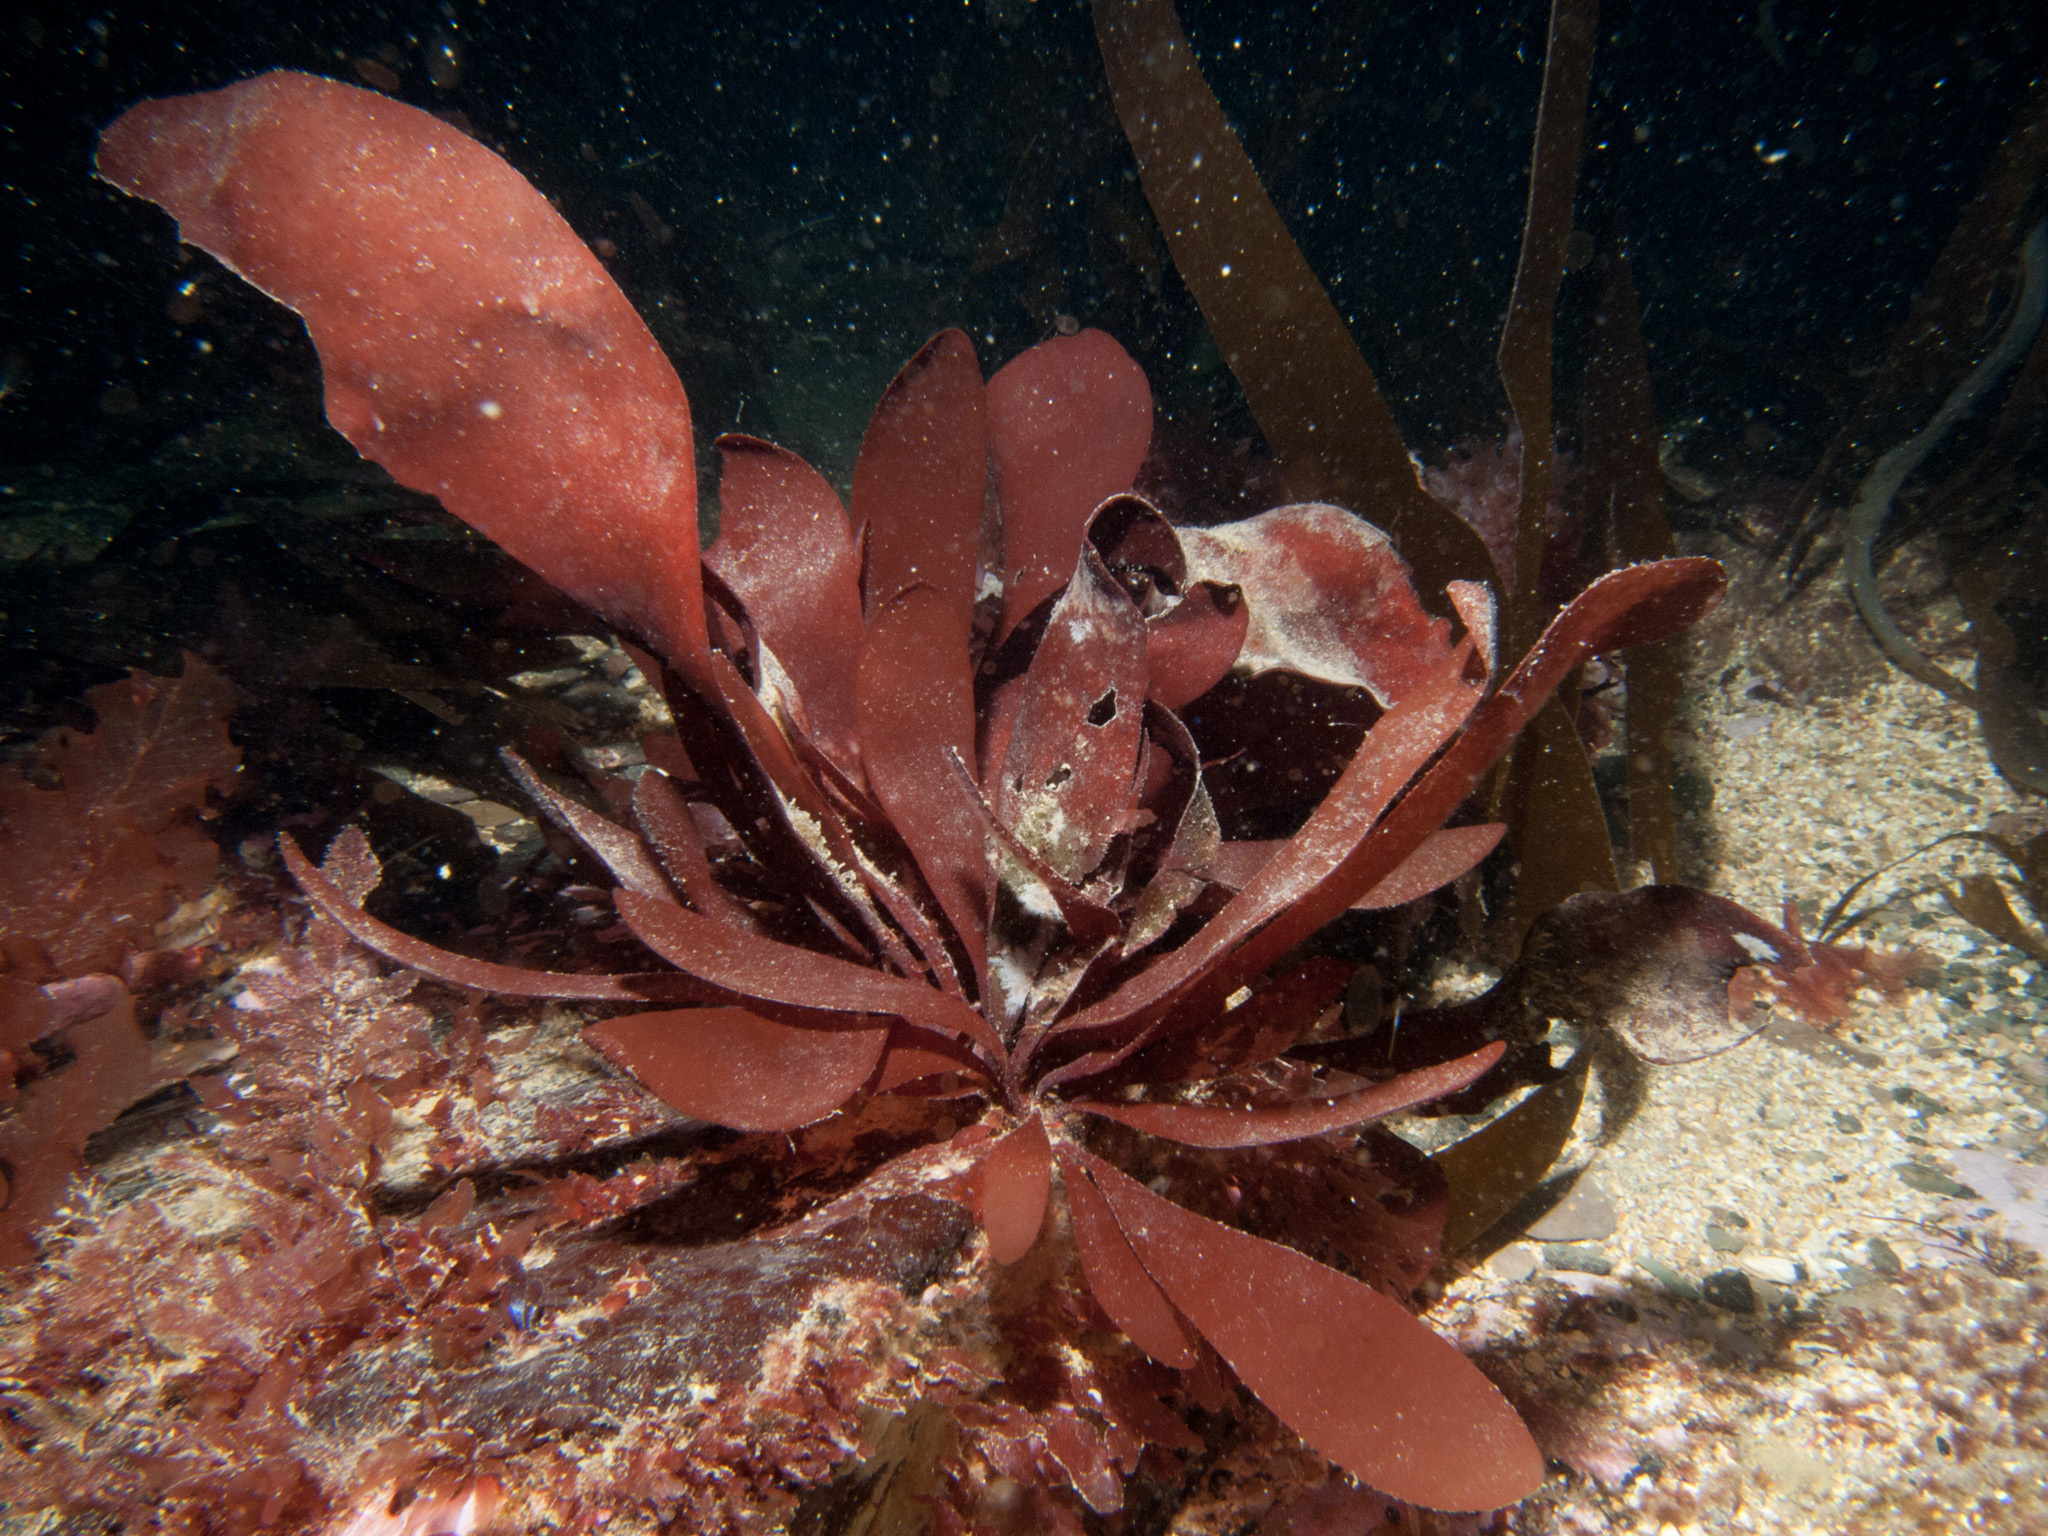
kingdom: Plantae
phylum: Rhodophyta
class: Florideophyceae
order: Gigartinales
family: Dumontiaceae
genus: Dilsea
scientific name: Dilsea carnosa
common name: Red rags
